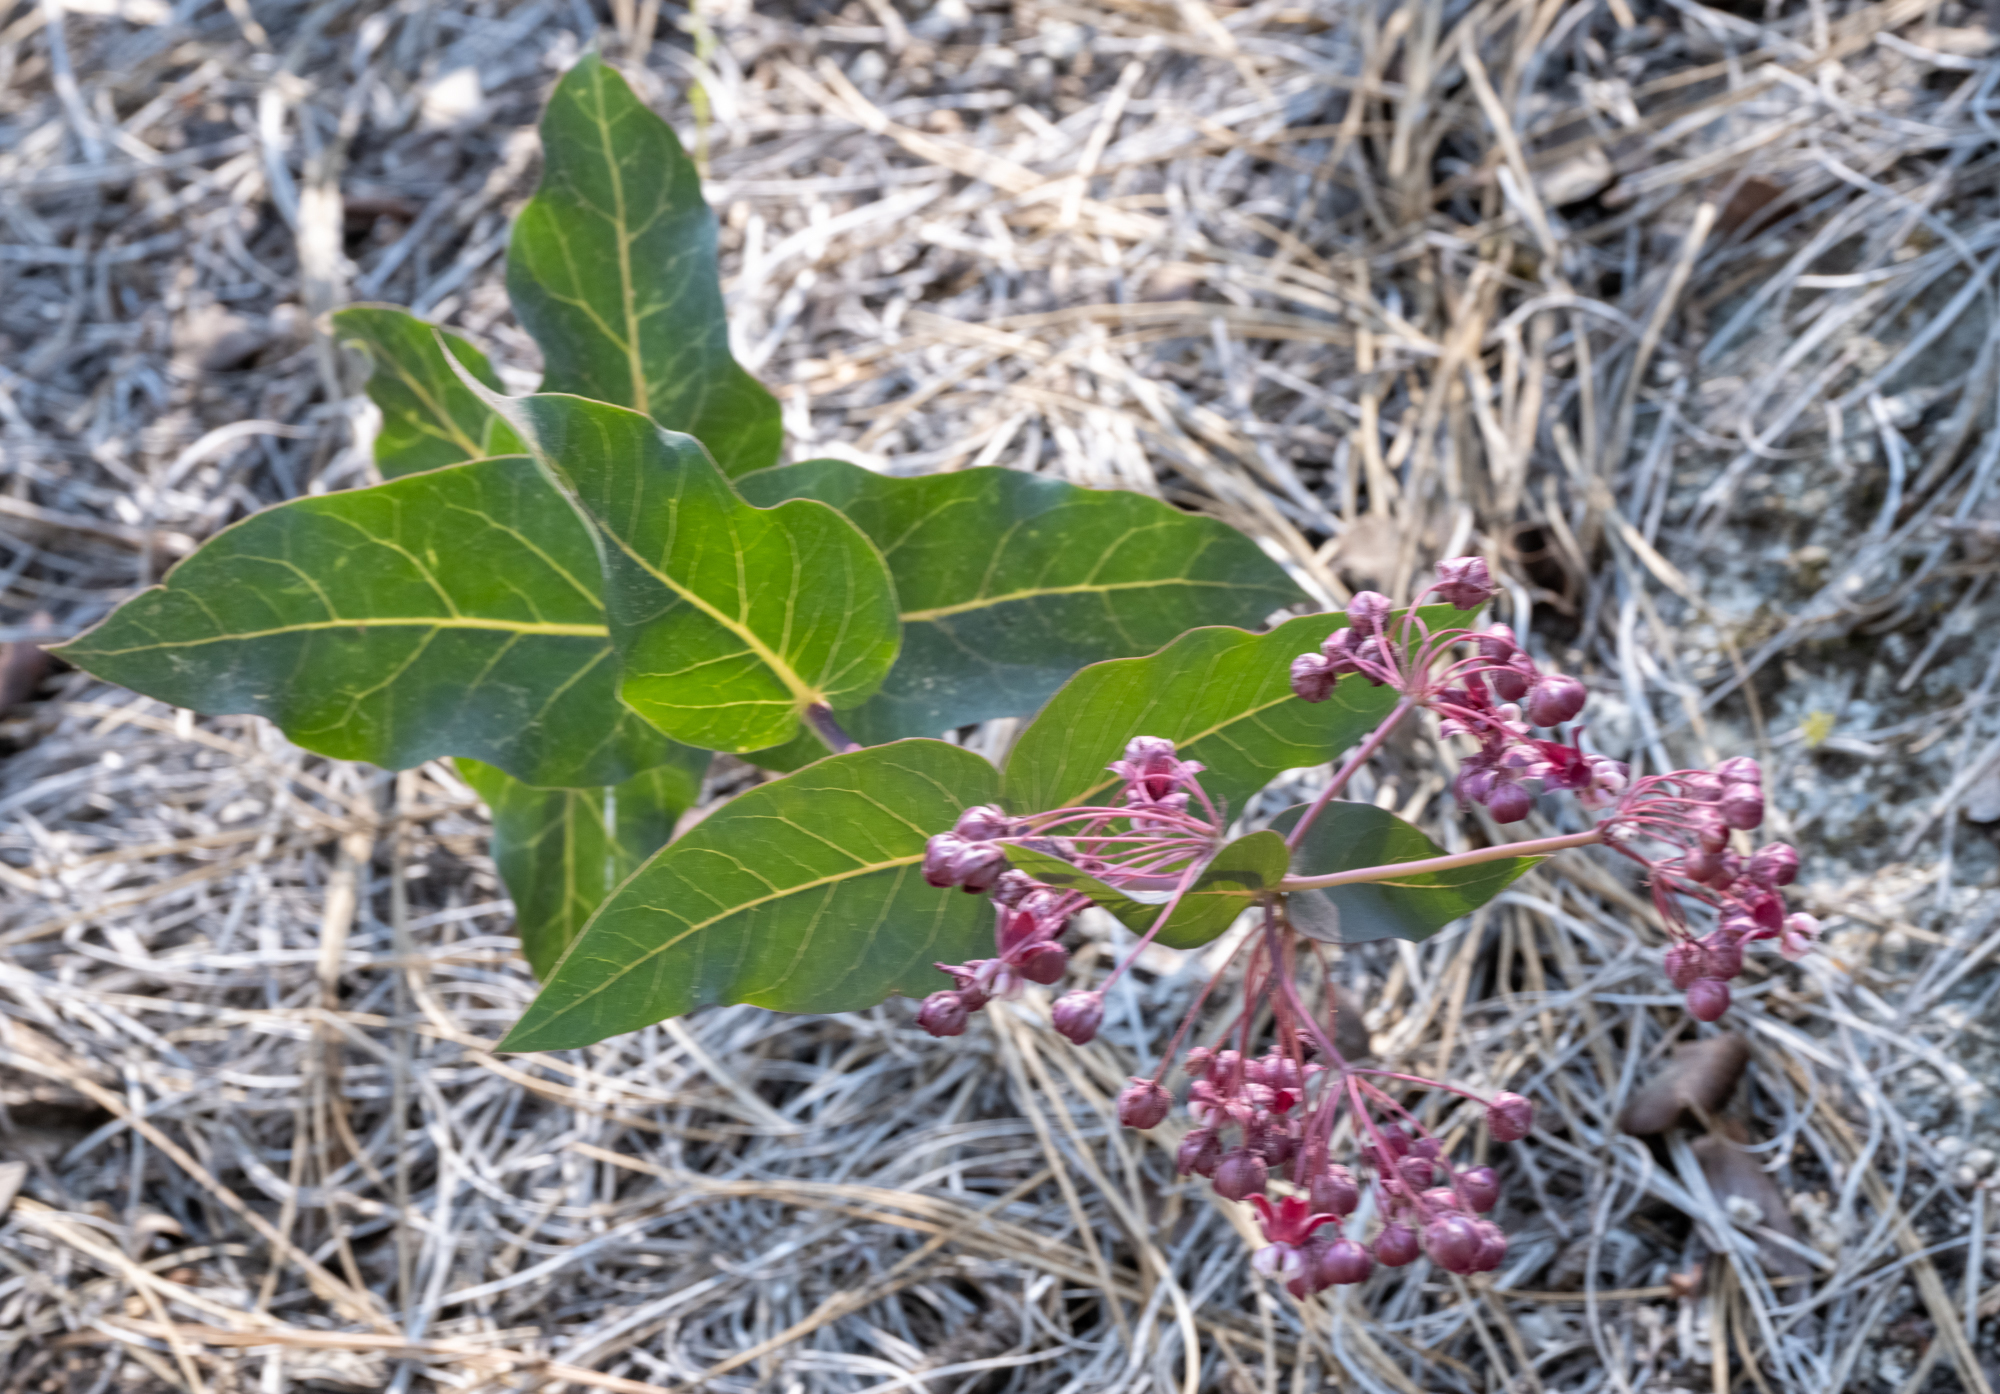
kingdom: Plantae
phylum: Tracheophyta
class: Magnoliopsida
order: Gentianales
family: Apocynaceae
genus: Asclepias
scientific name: Asclepias cordifolia
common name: Purple milkweed
